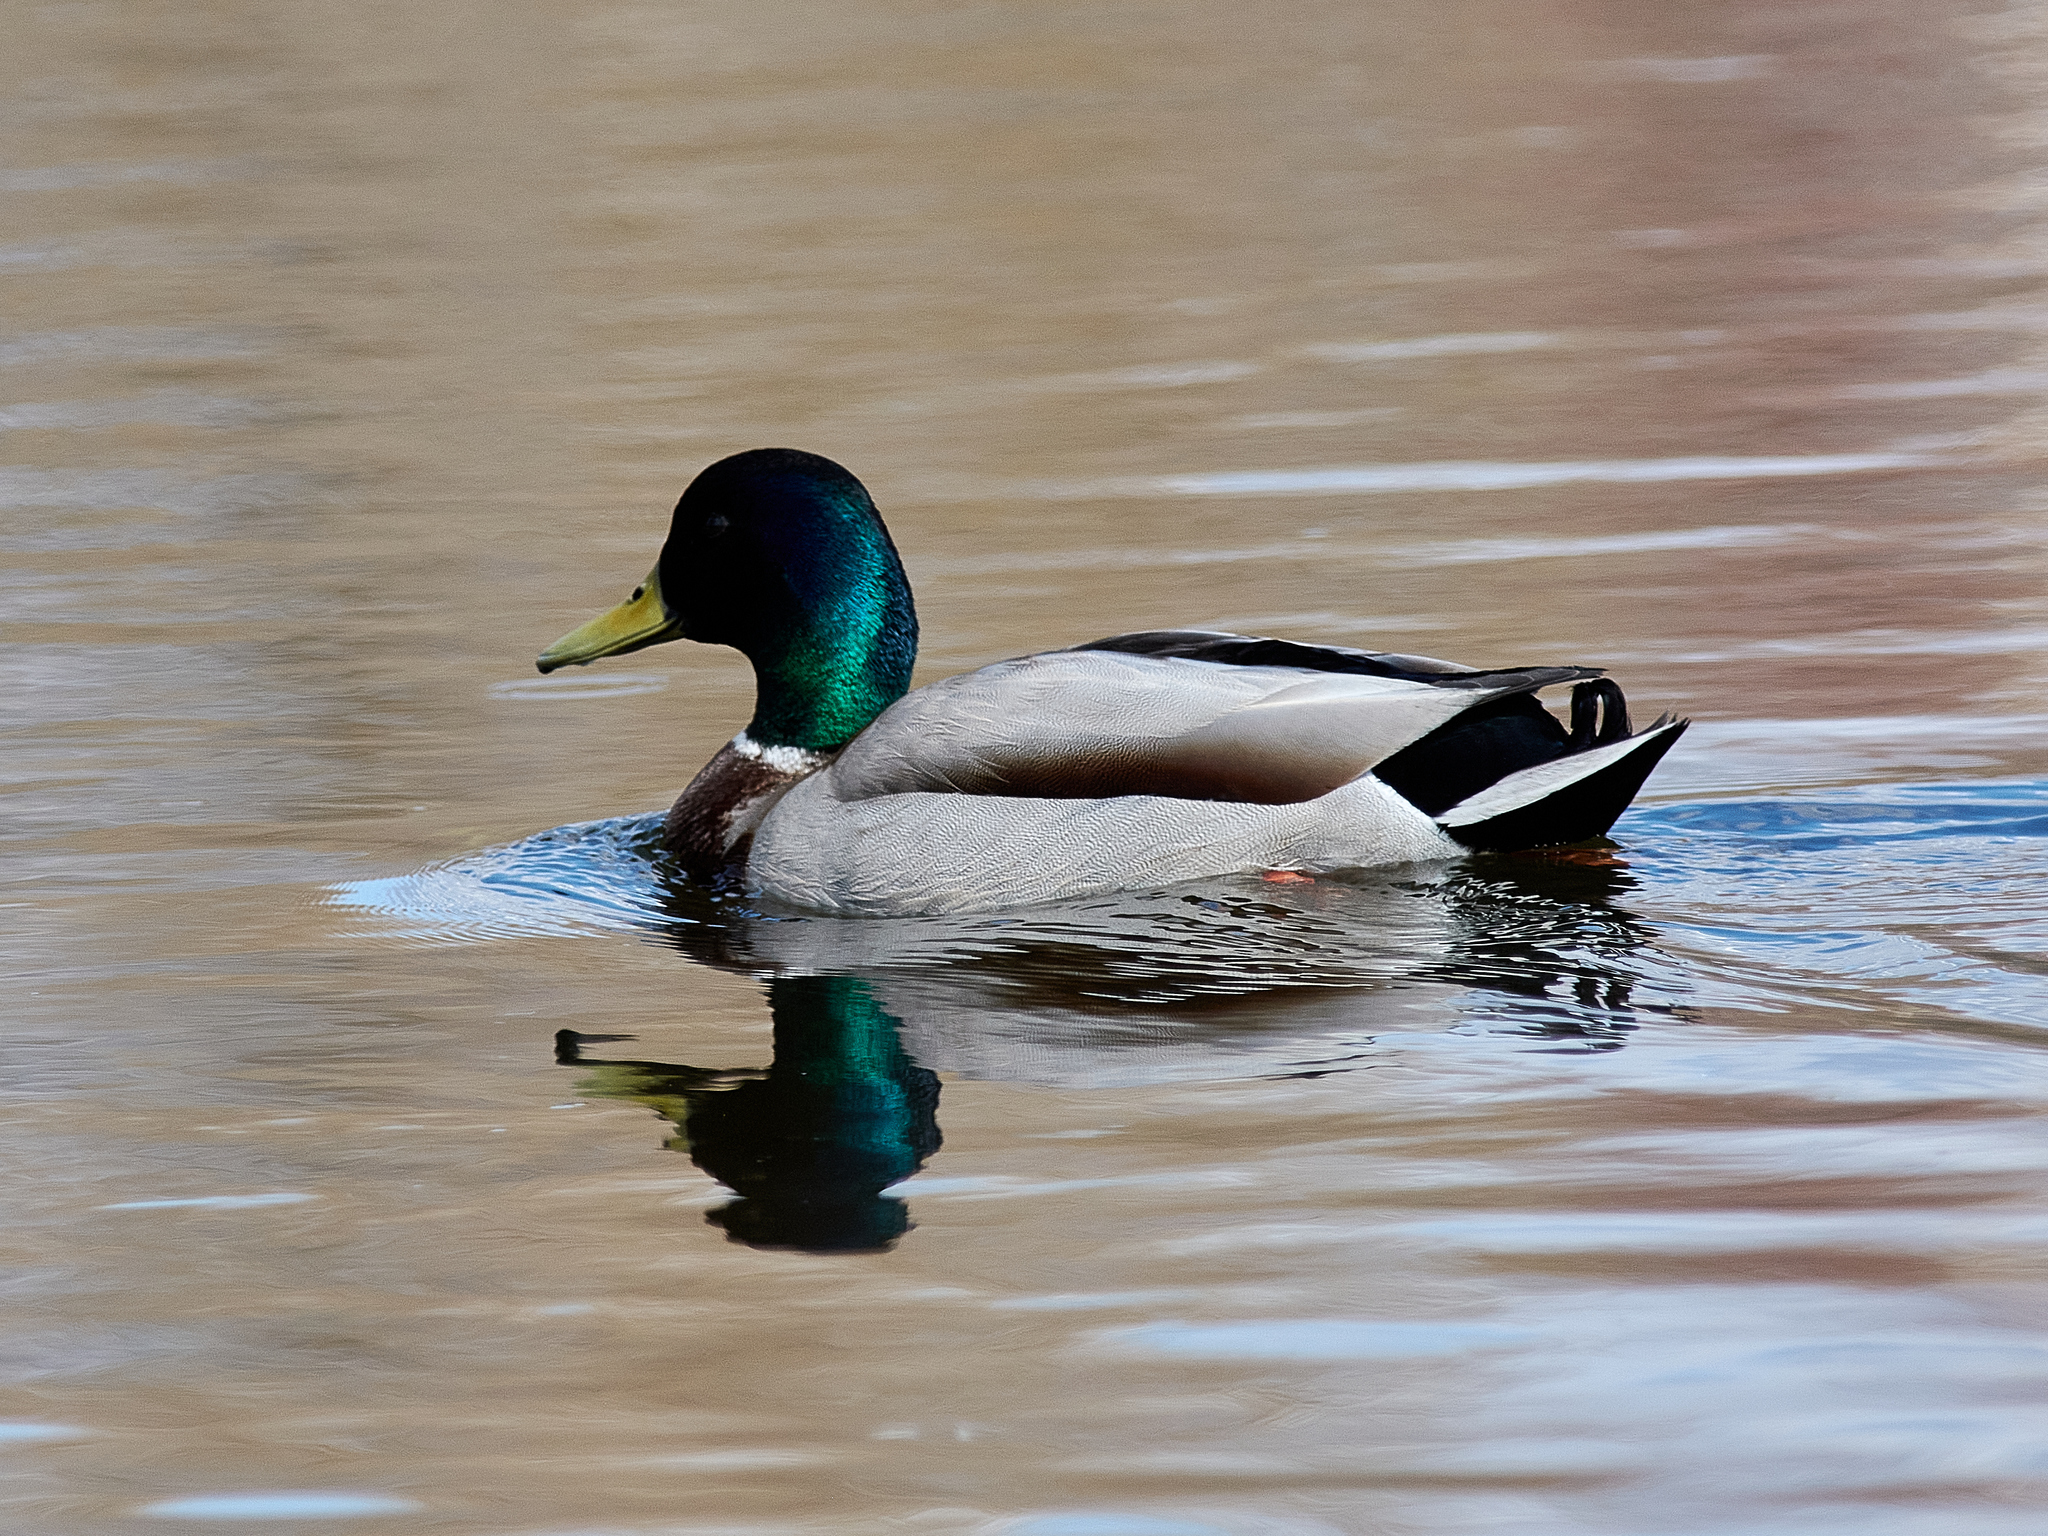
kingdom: Animalia
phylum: Chordata
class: Aves
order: Anseriformes
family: Anatidae
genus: Anas
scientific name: Anas platyrhynchos
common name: Mallard
